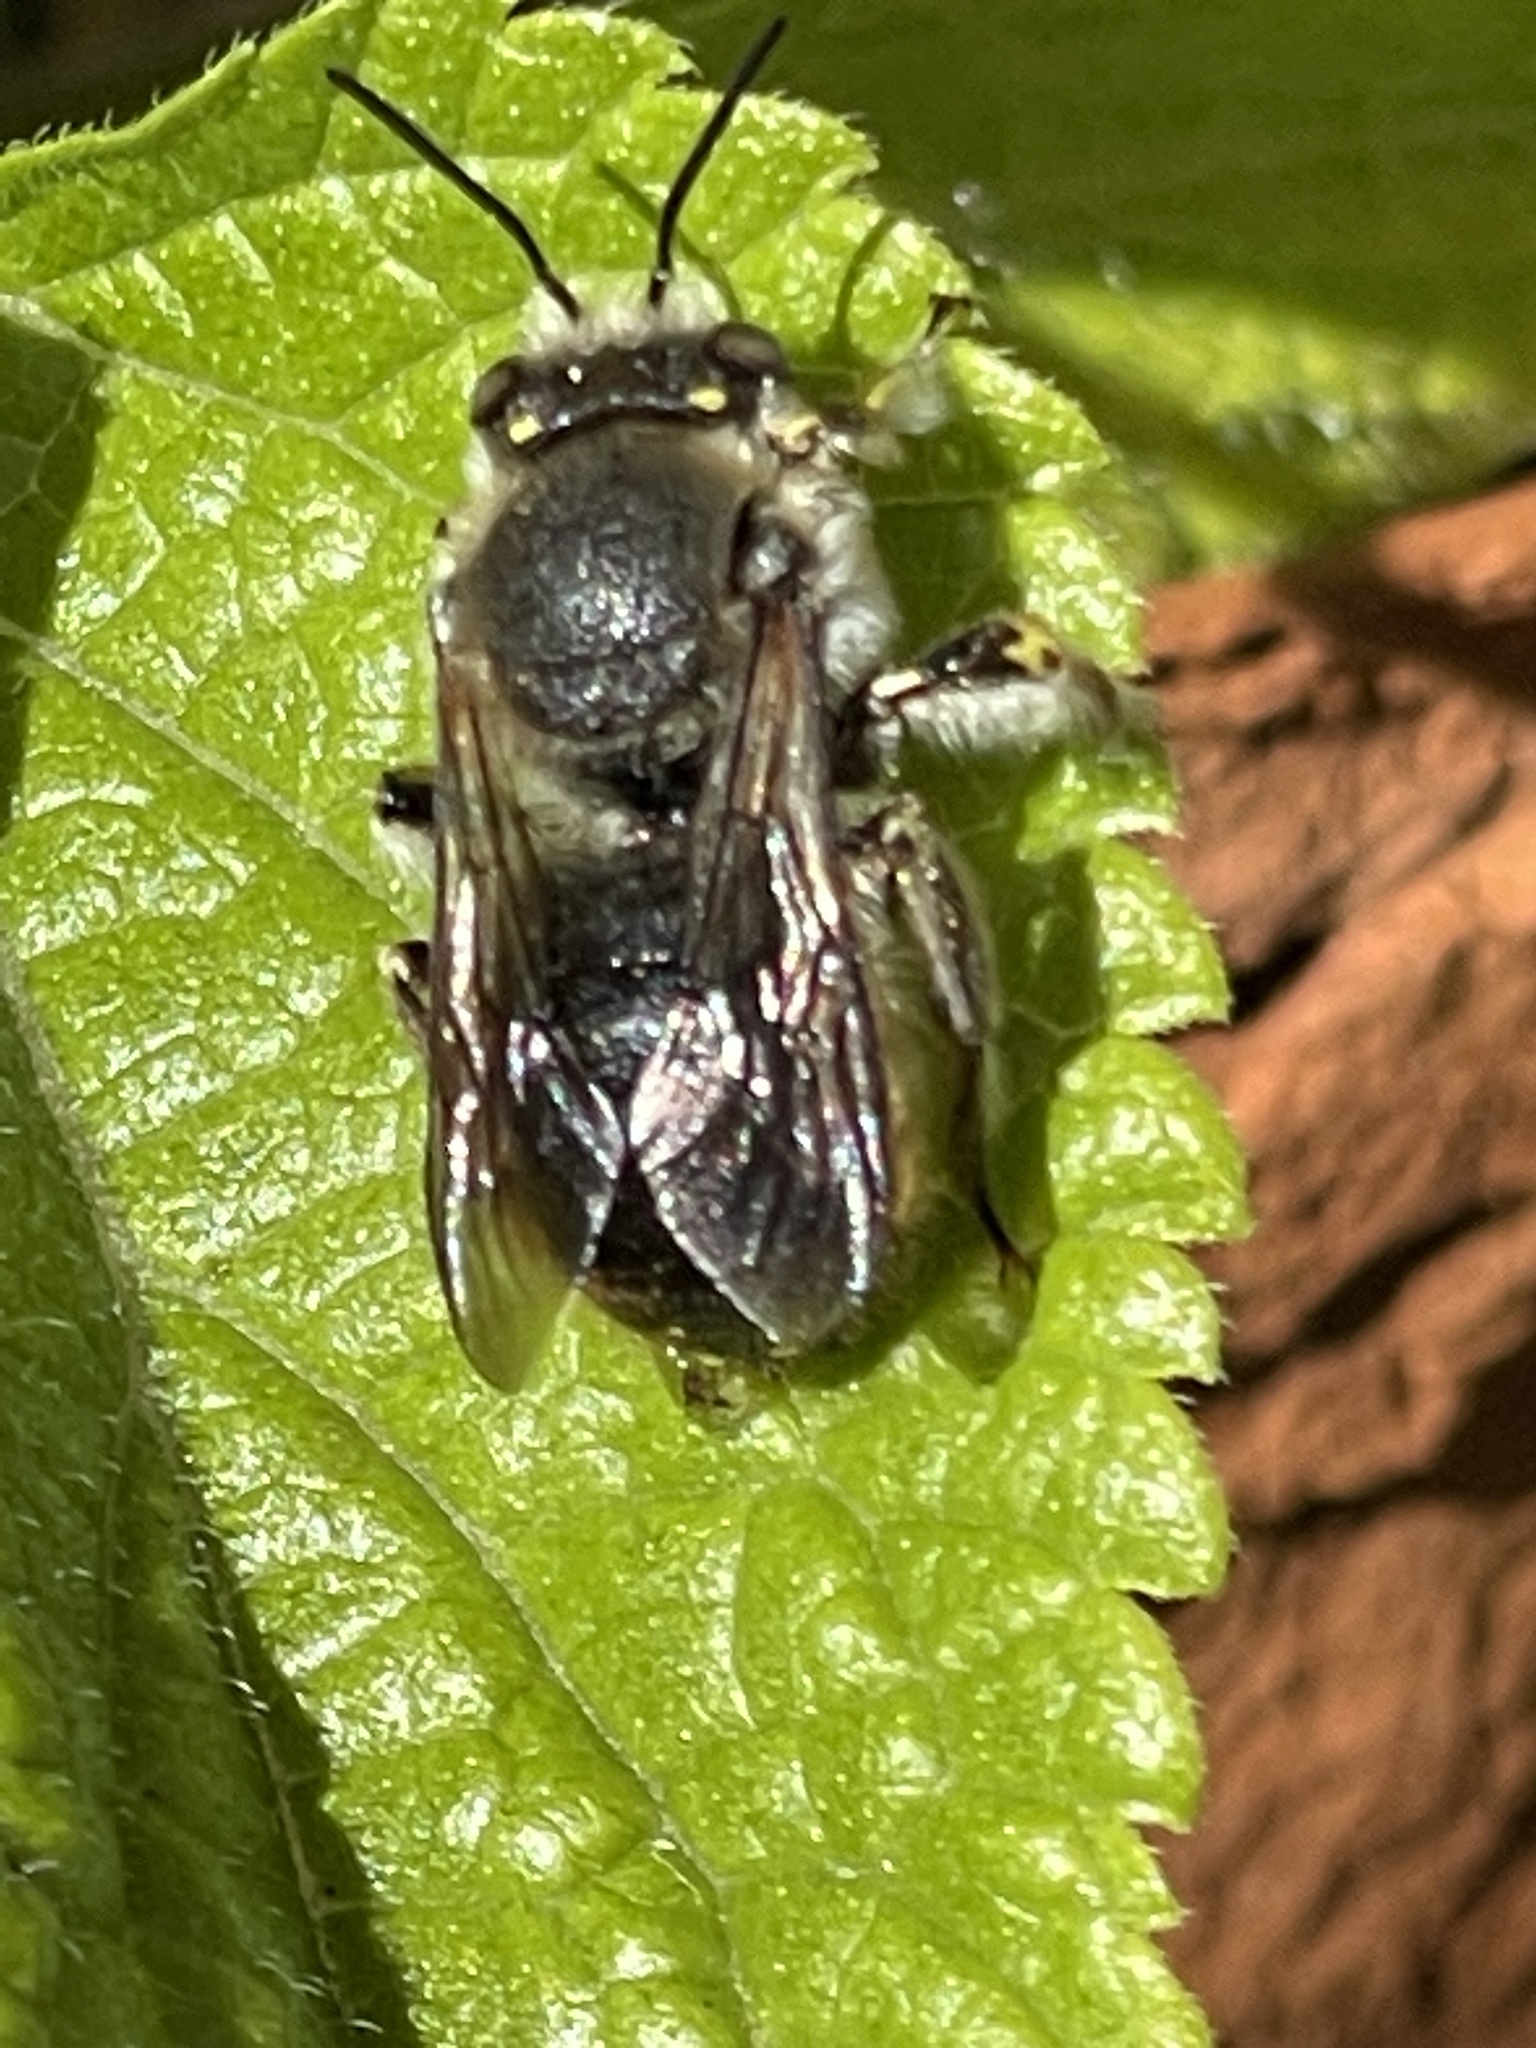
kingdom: Animalia
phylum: Arthropoda
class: Insecta
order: Hymenoptera
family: Megachilidae
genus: Anthidium
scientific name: Anthidium manicatum
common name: Wool carder bee
